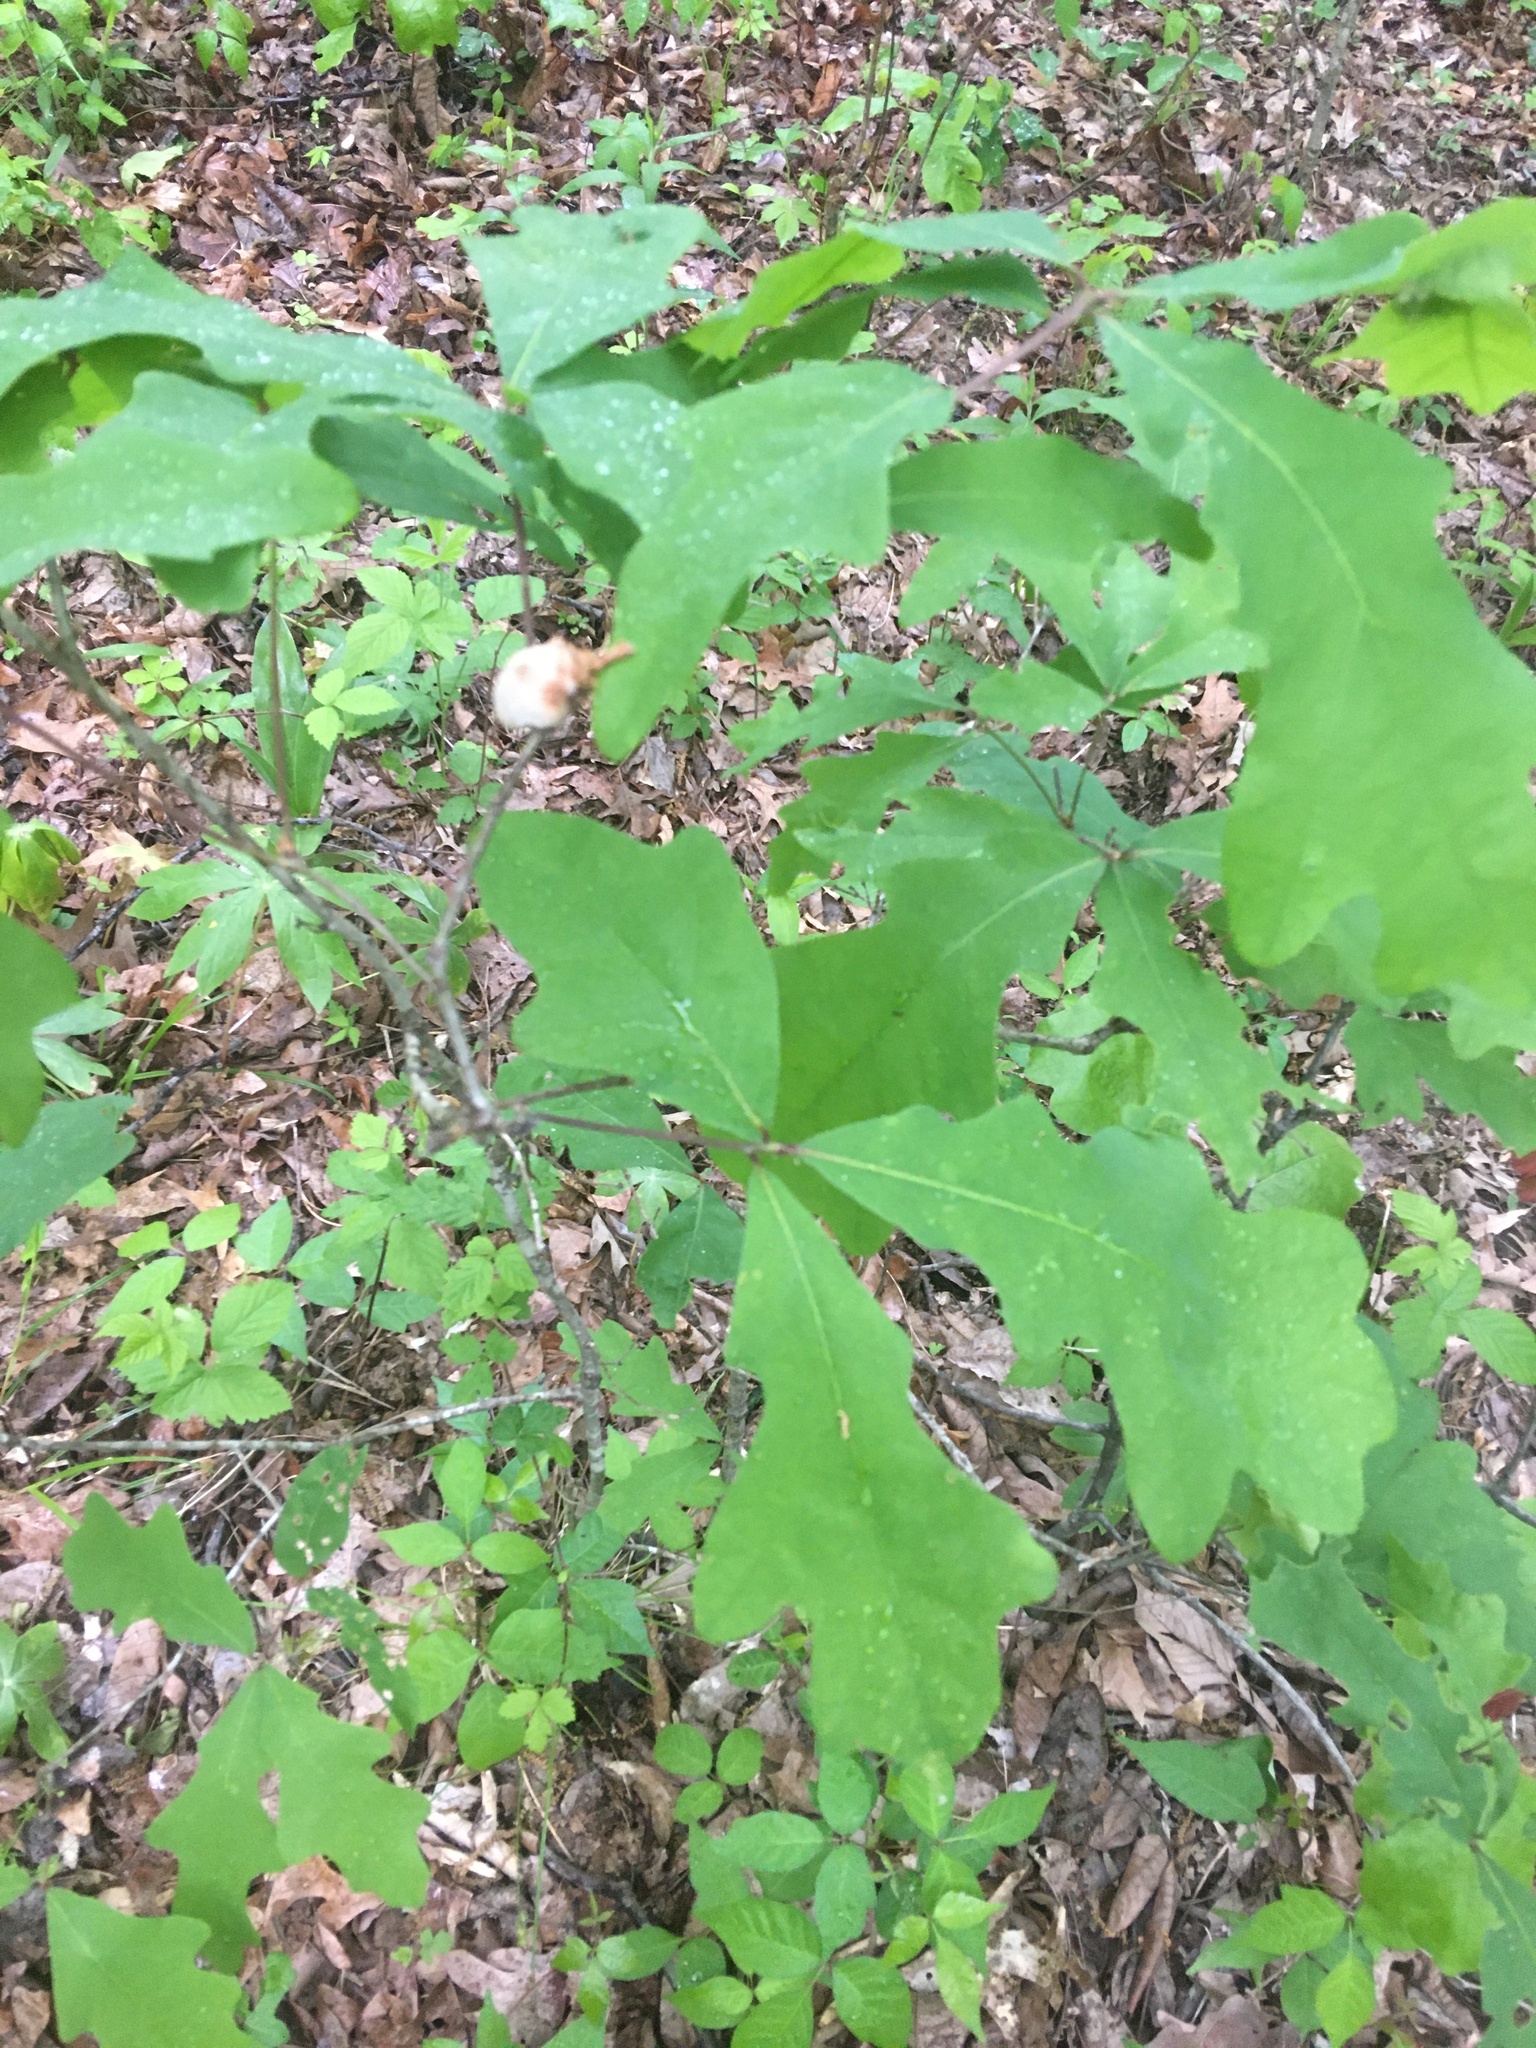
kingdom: Animalia
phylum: Arthropoda
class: Insecta
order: Hymenoptera
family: Cynipidae
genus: Callirhytis
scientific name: Callirhytis
